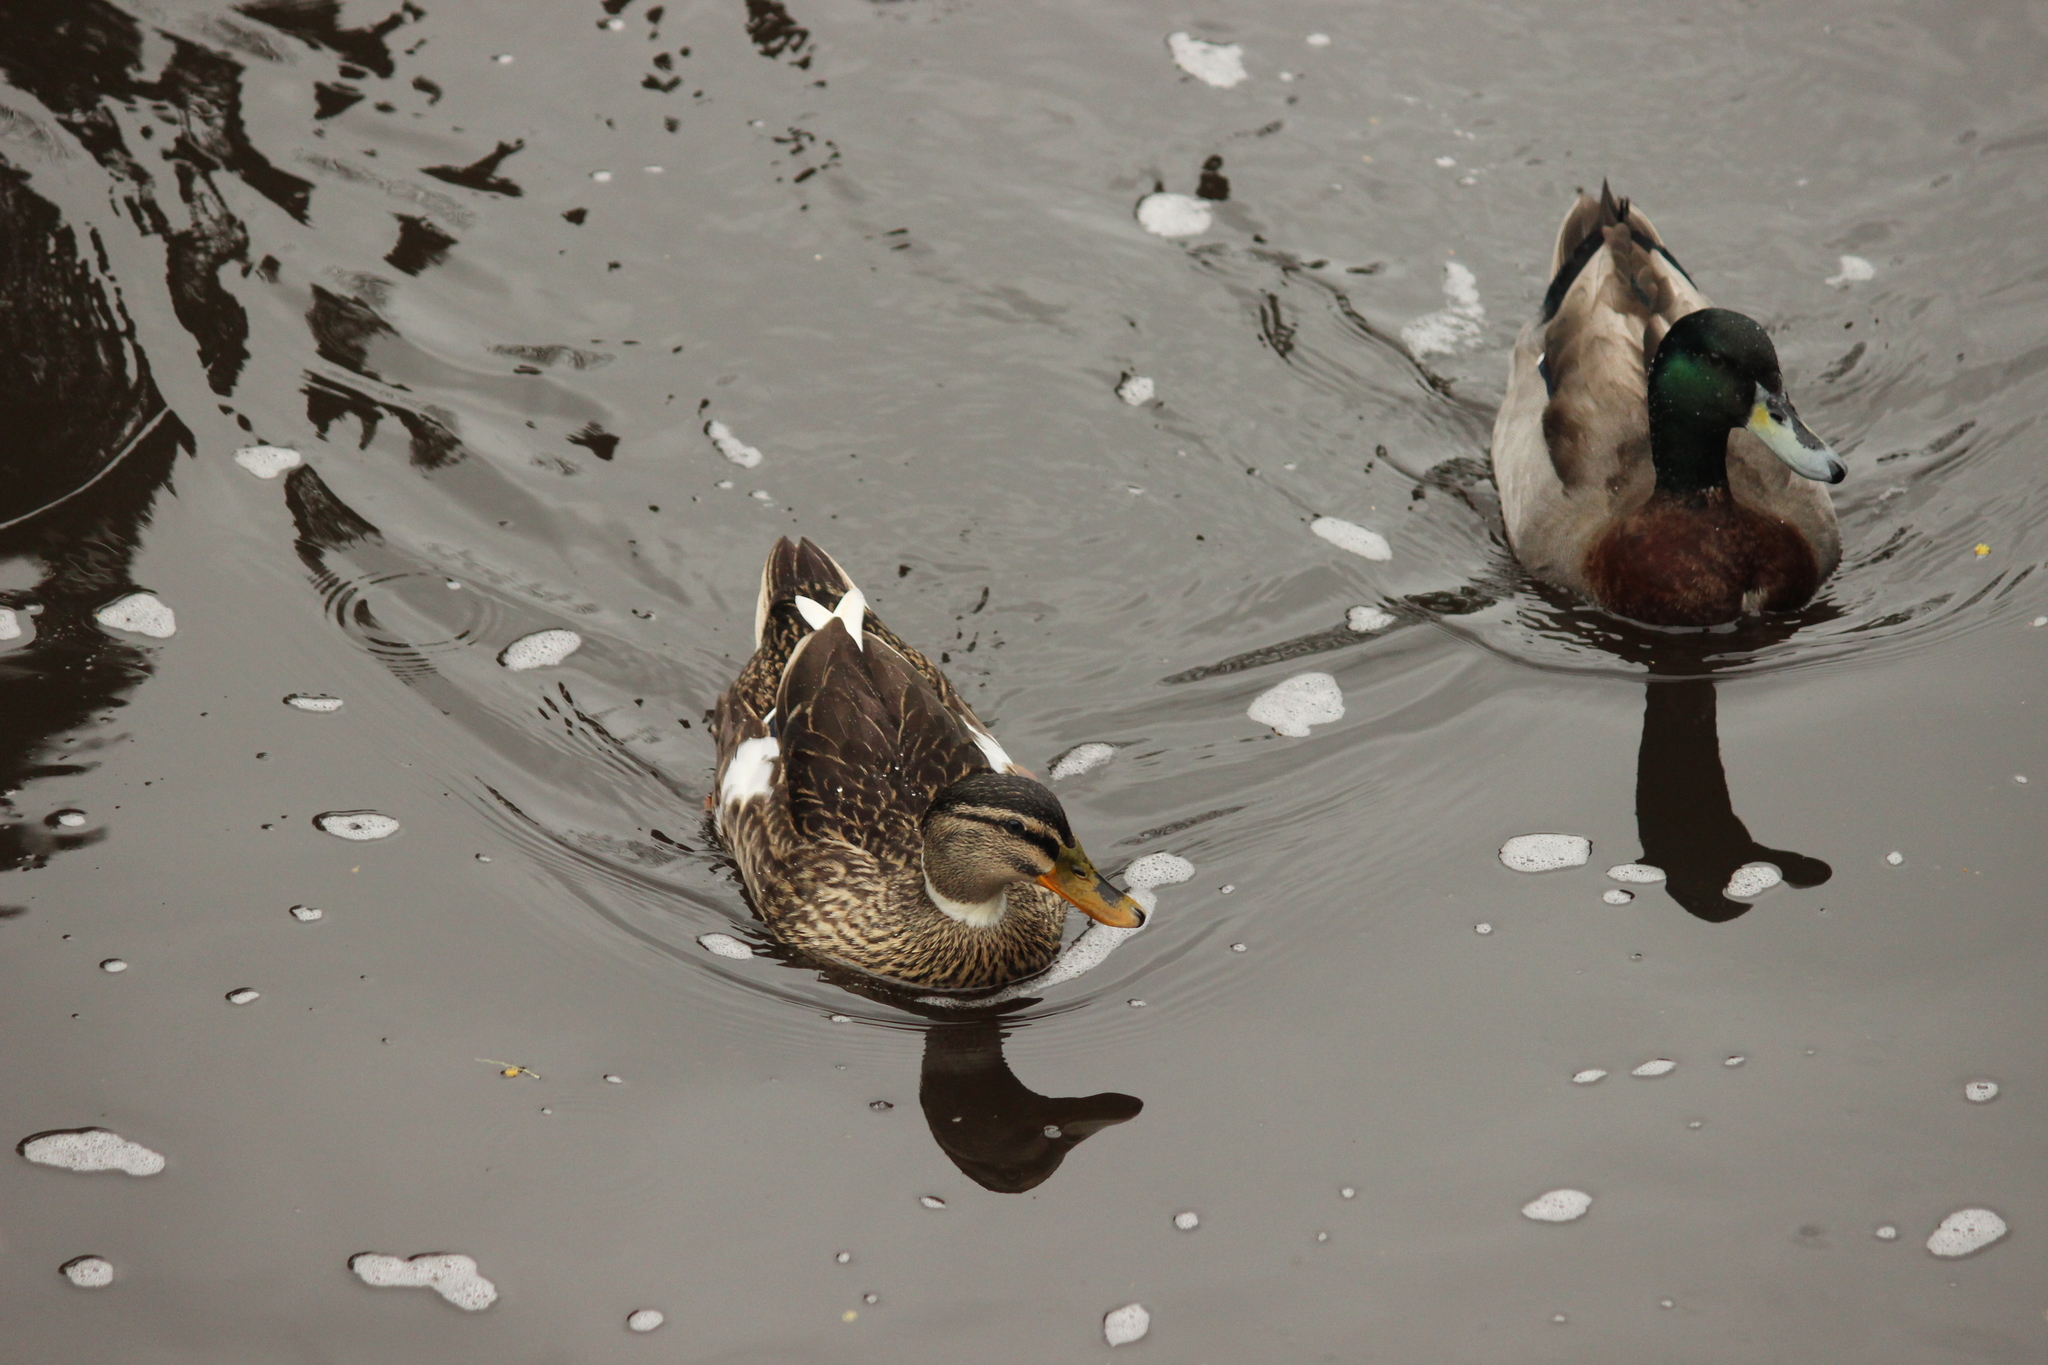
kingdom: Animalia
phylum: Chordata
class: Aves
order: Anseriformes
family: Anatidae
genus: Anas
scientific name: Anas platyrhynchos
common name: Mallard
